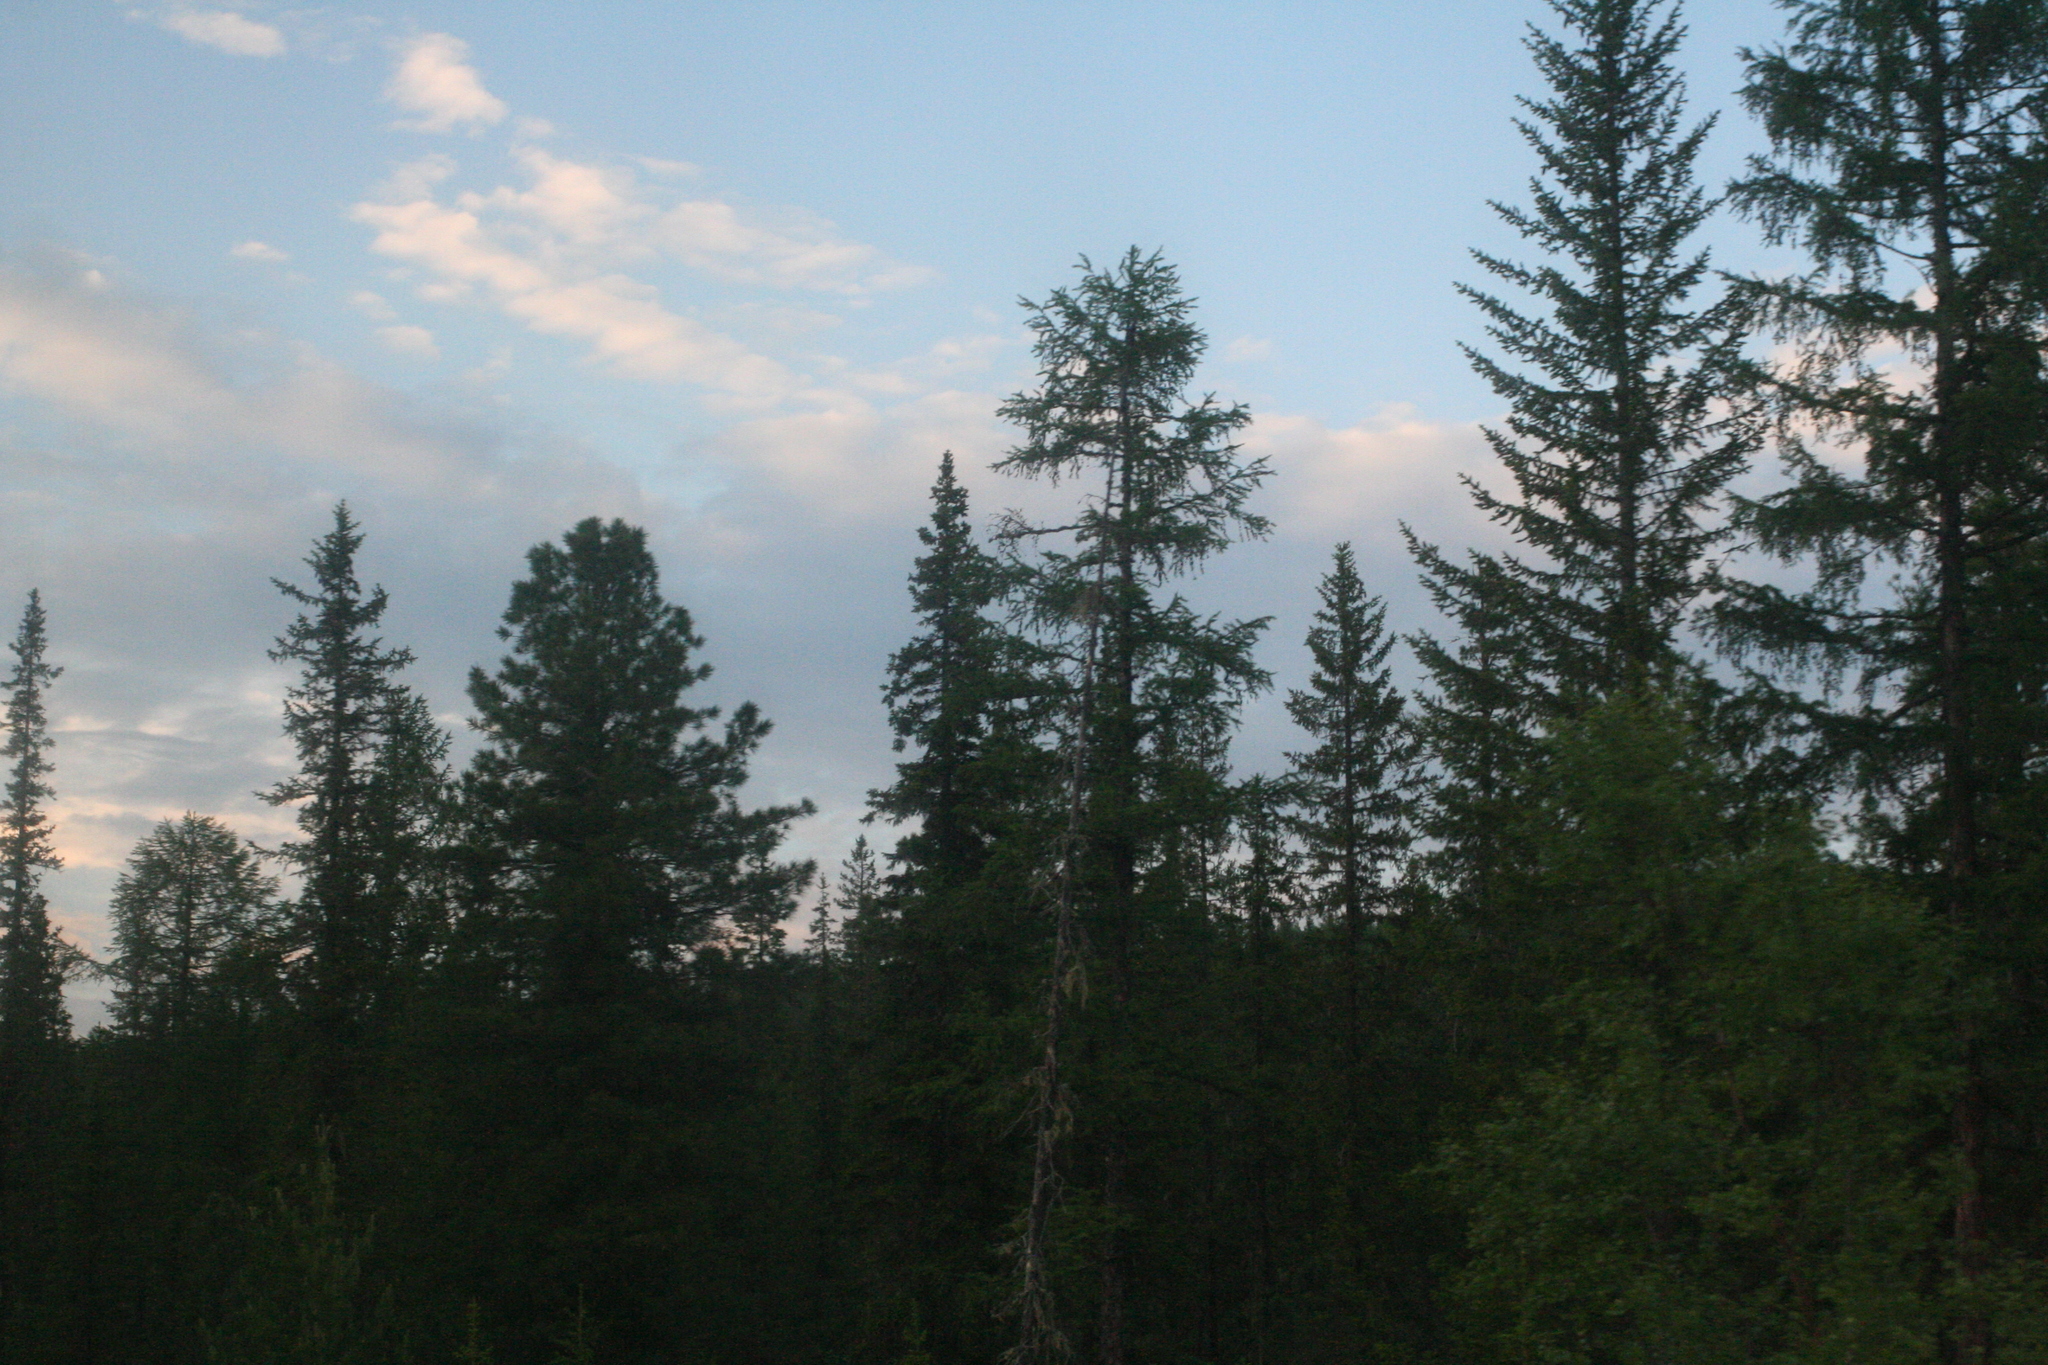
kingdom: Plantae
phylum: Tracheophyta
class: Pinopsida
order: Pinales
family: Pinaceae
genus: Larix
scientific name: Larix gmelinii
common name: Dahurian larch
